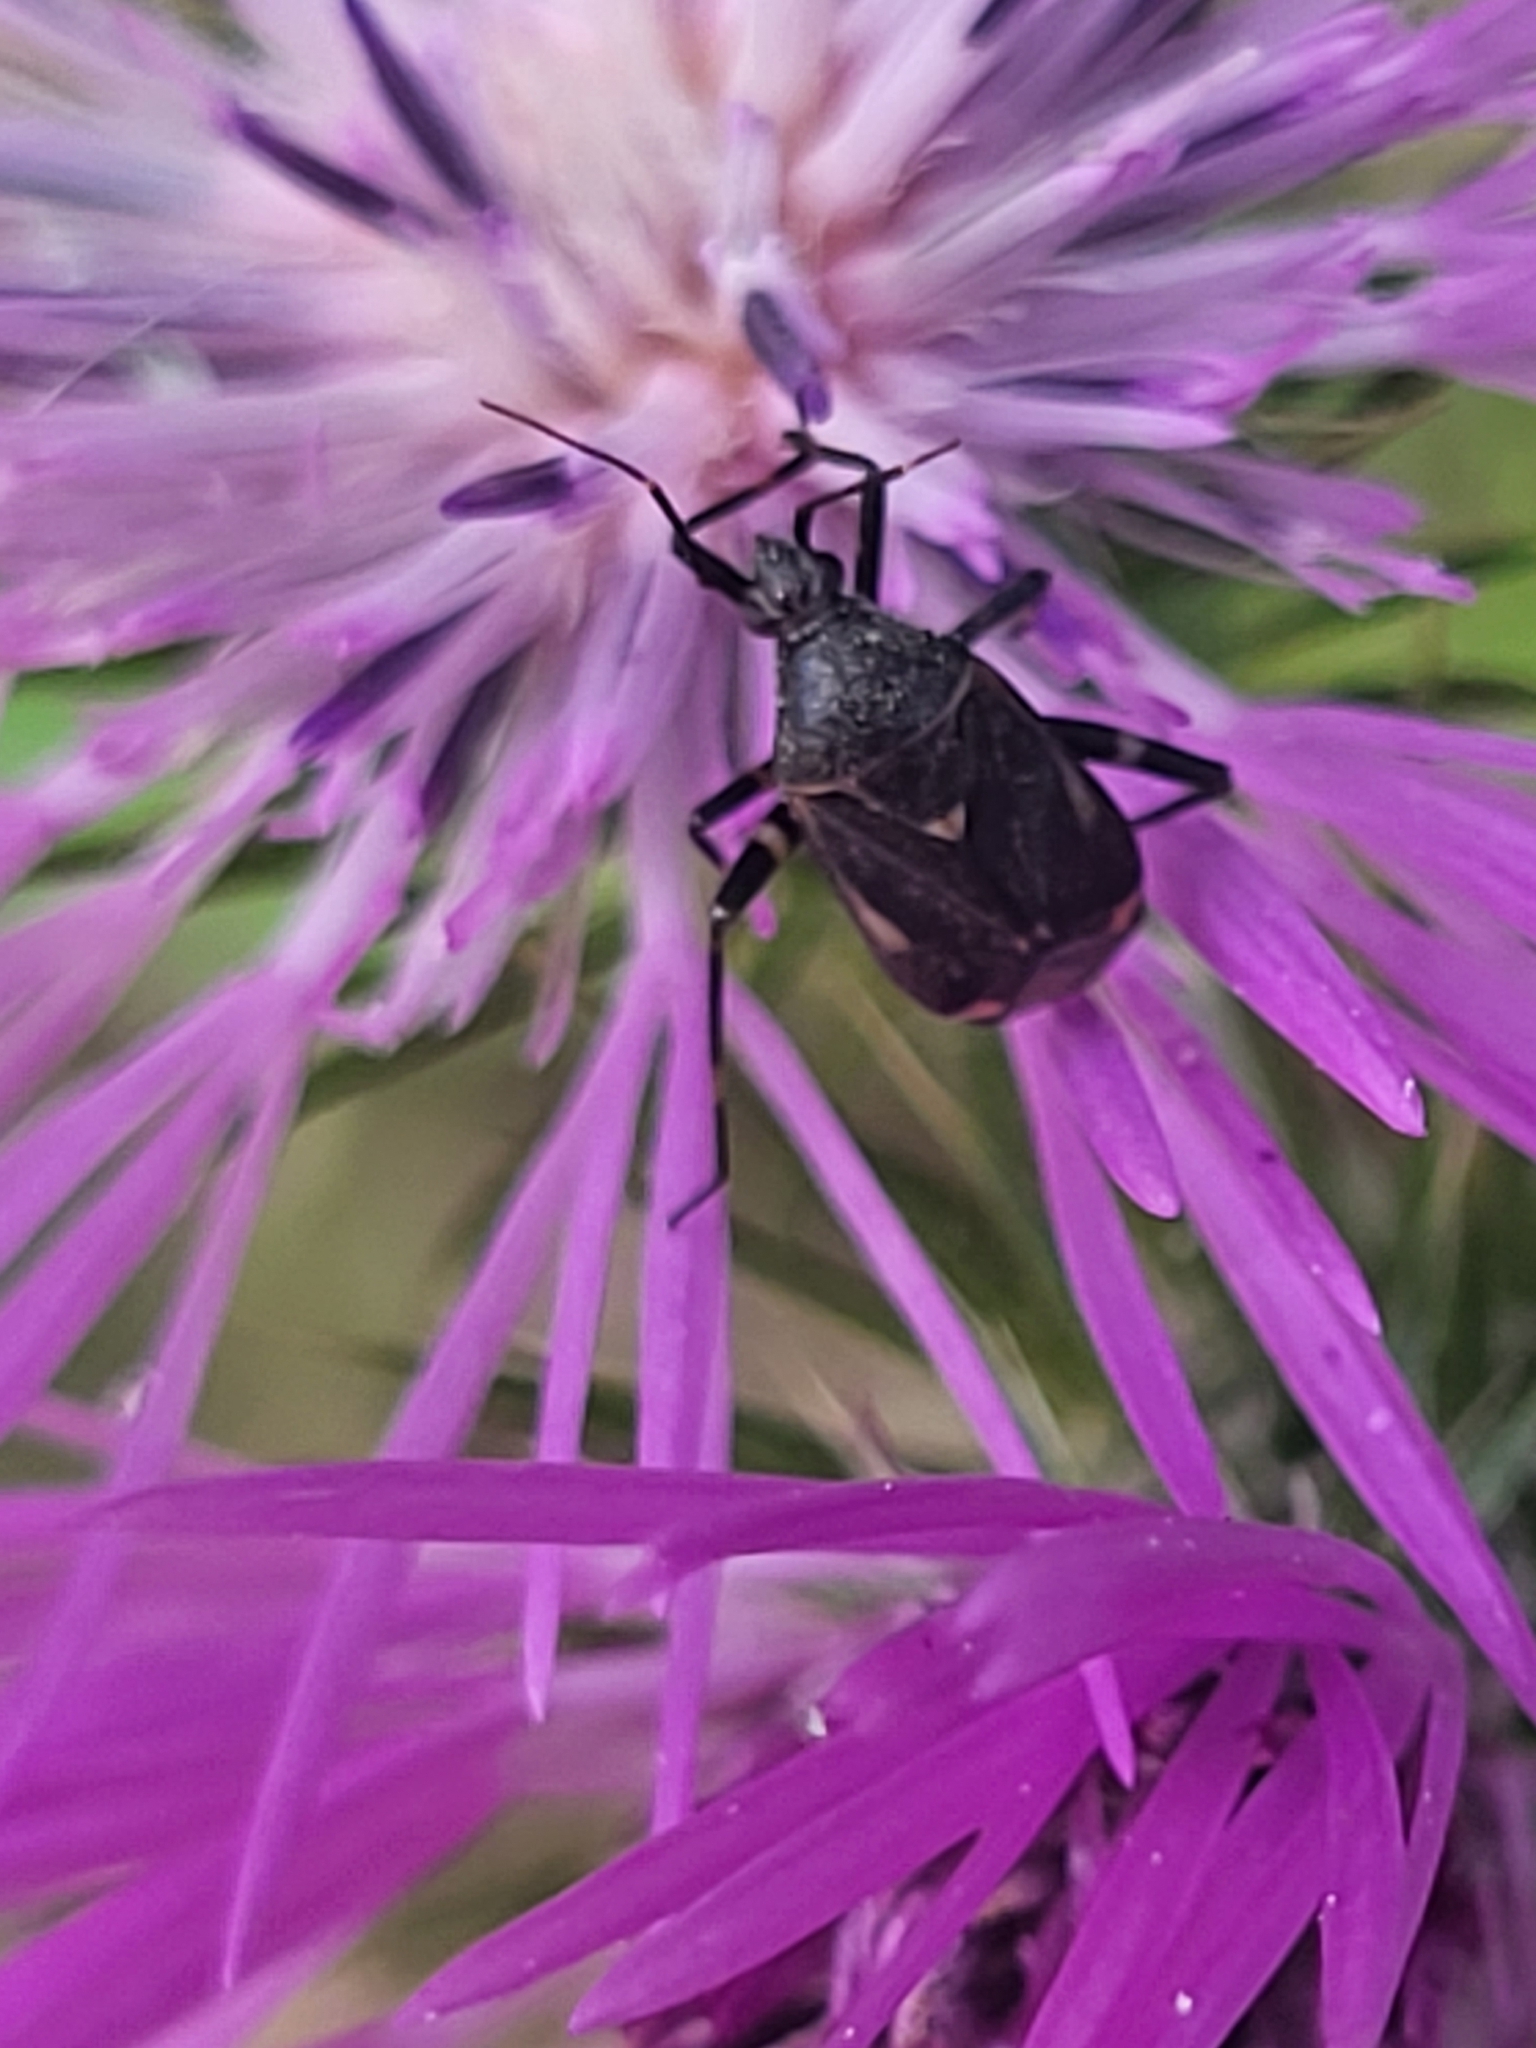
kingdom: Animalia
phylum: Arthropoda
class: Insecta
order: Hemiptera
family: Miridae
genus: Closterotomus
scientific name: Closterotomus cinctipes
